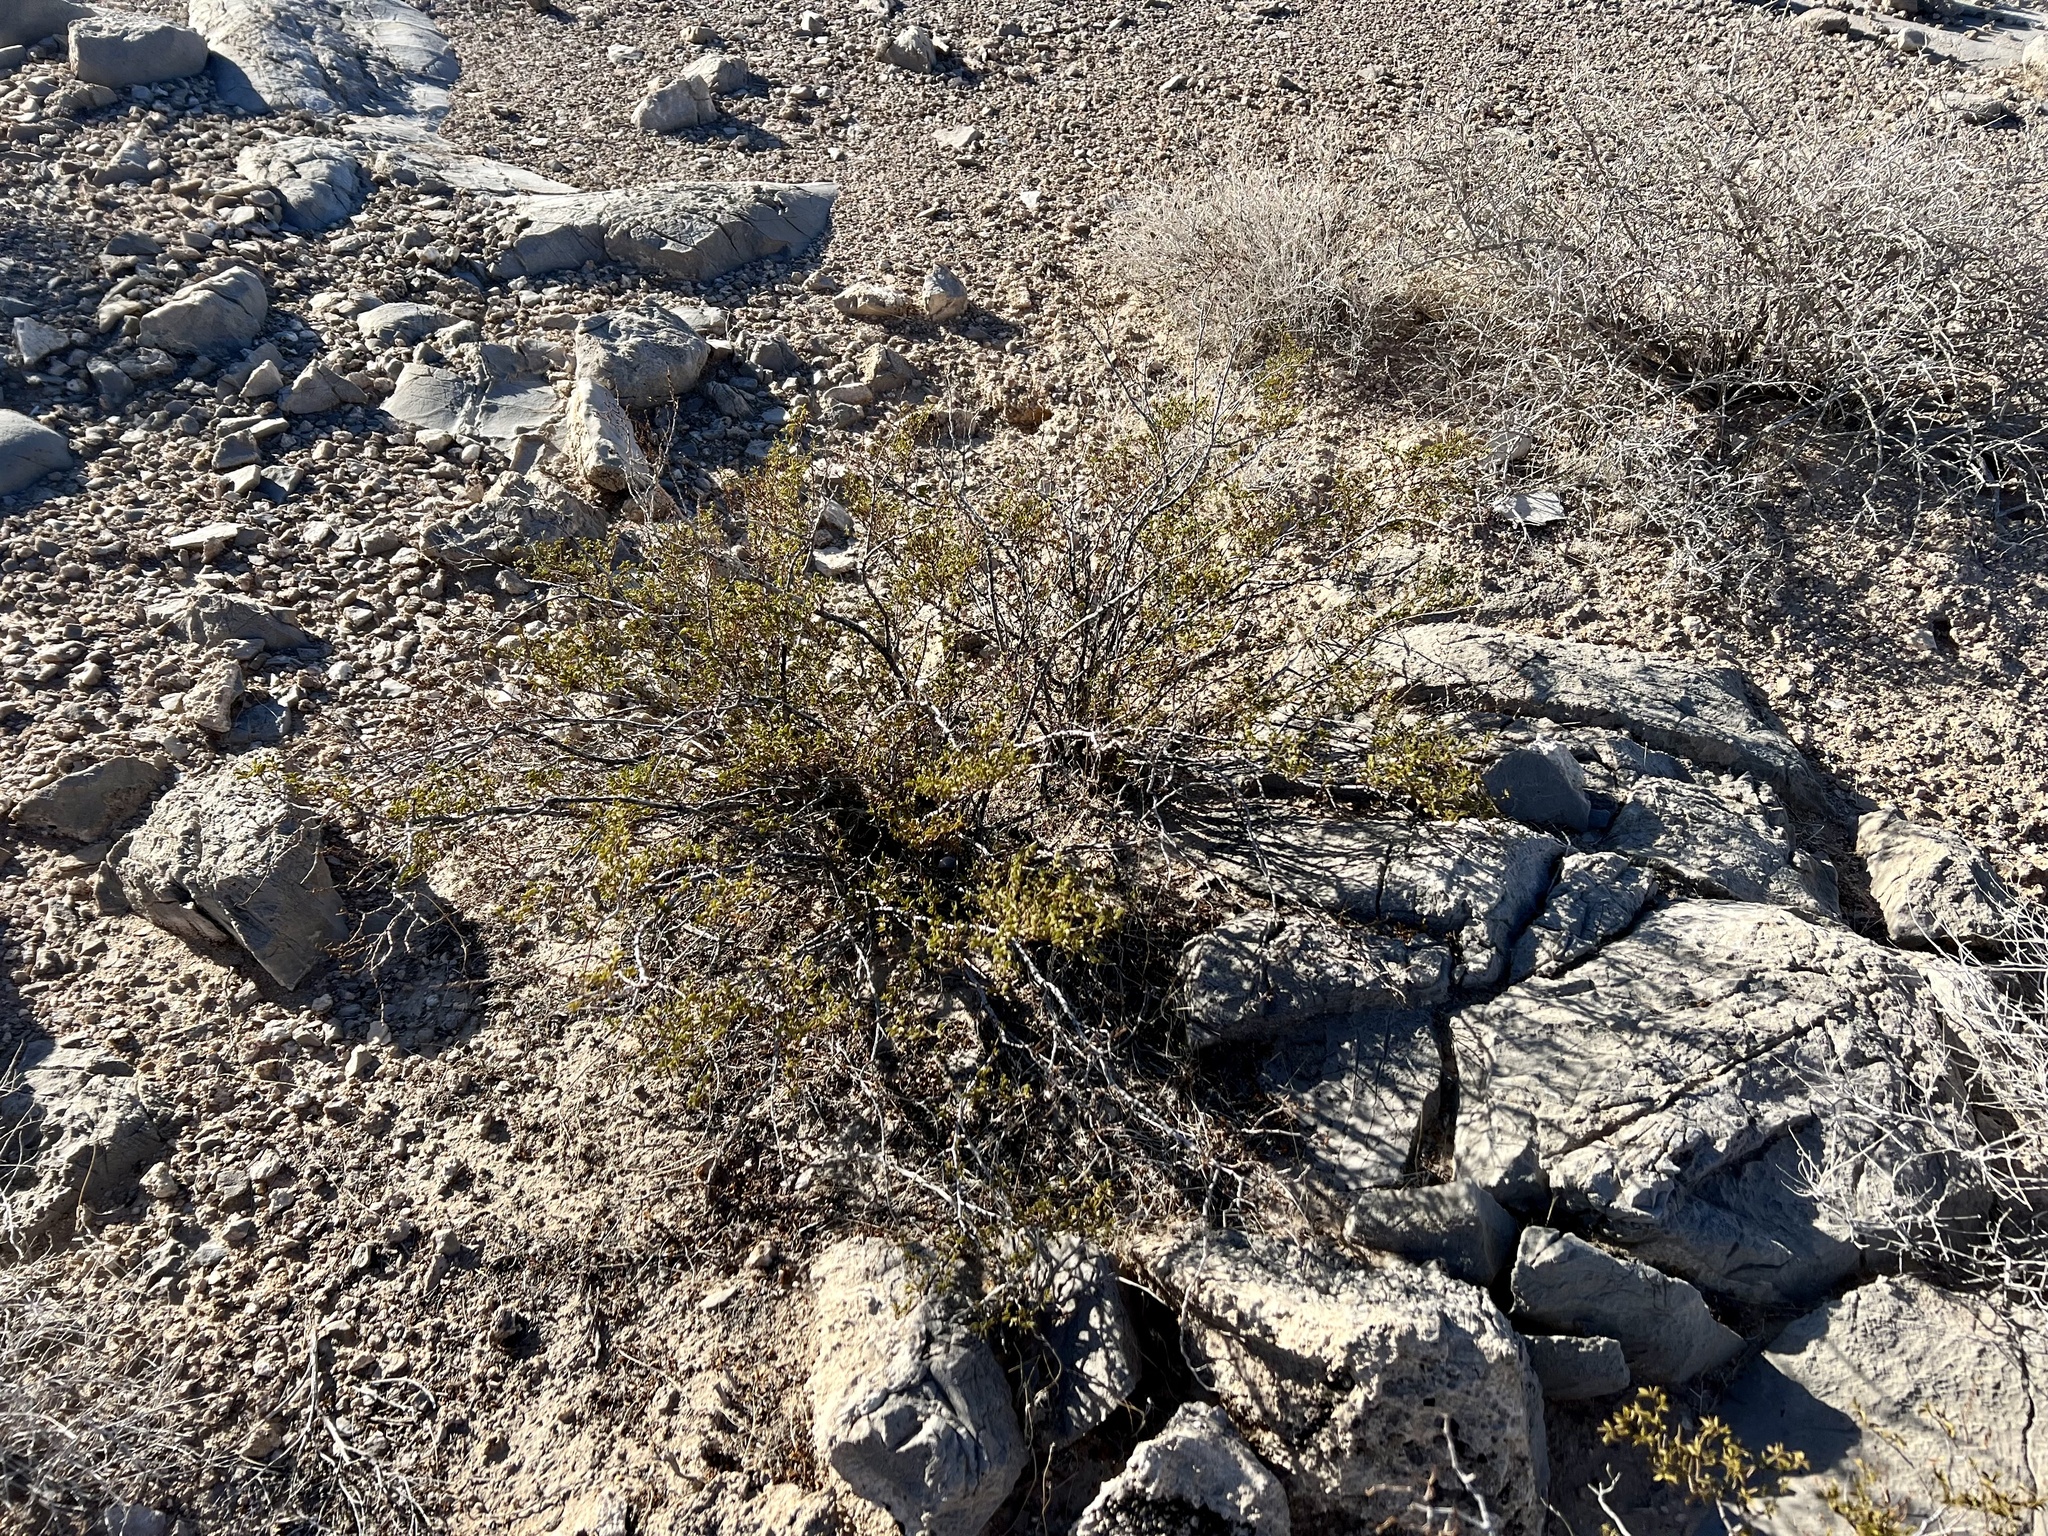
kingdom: Plantae
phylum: Tracheophyta
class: Magnoliopsida
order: Zygophyllales
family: Zygophyllaceae
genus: Larrea
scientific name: Larrea tridentata
